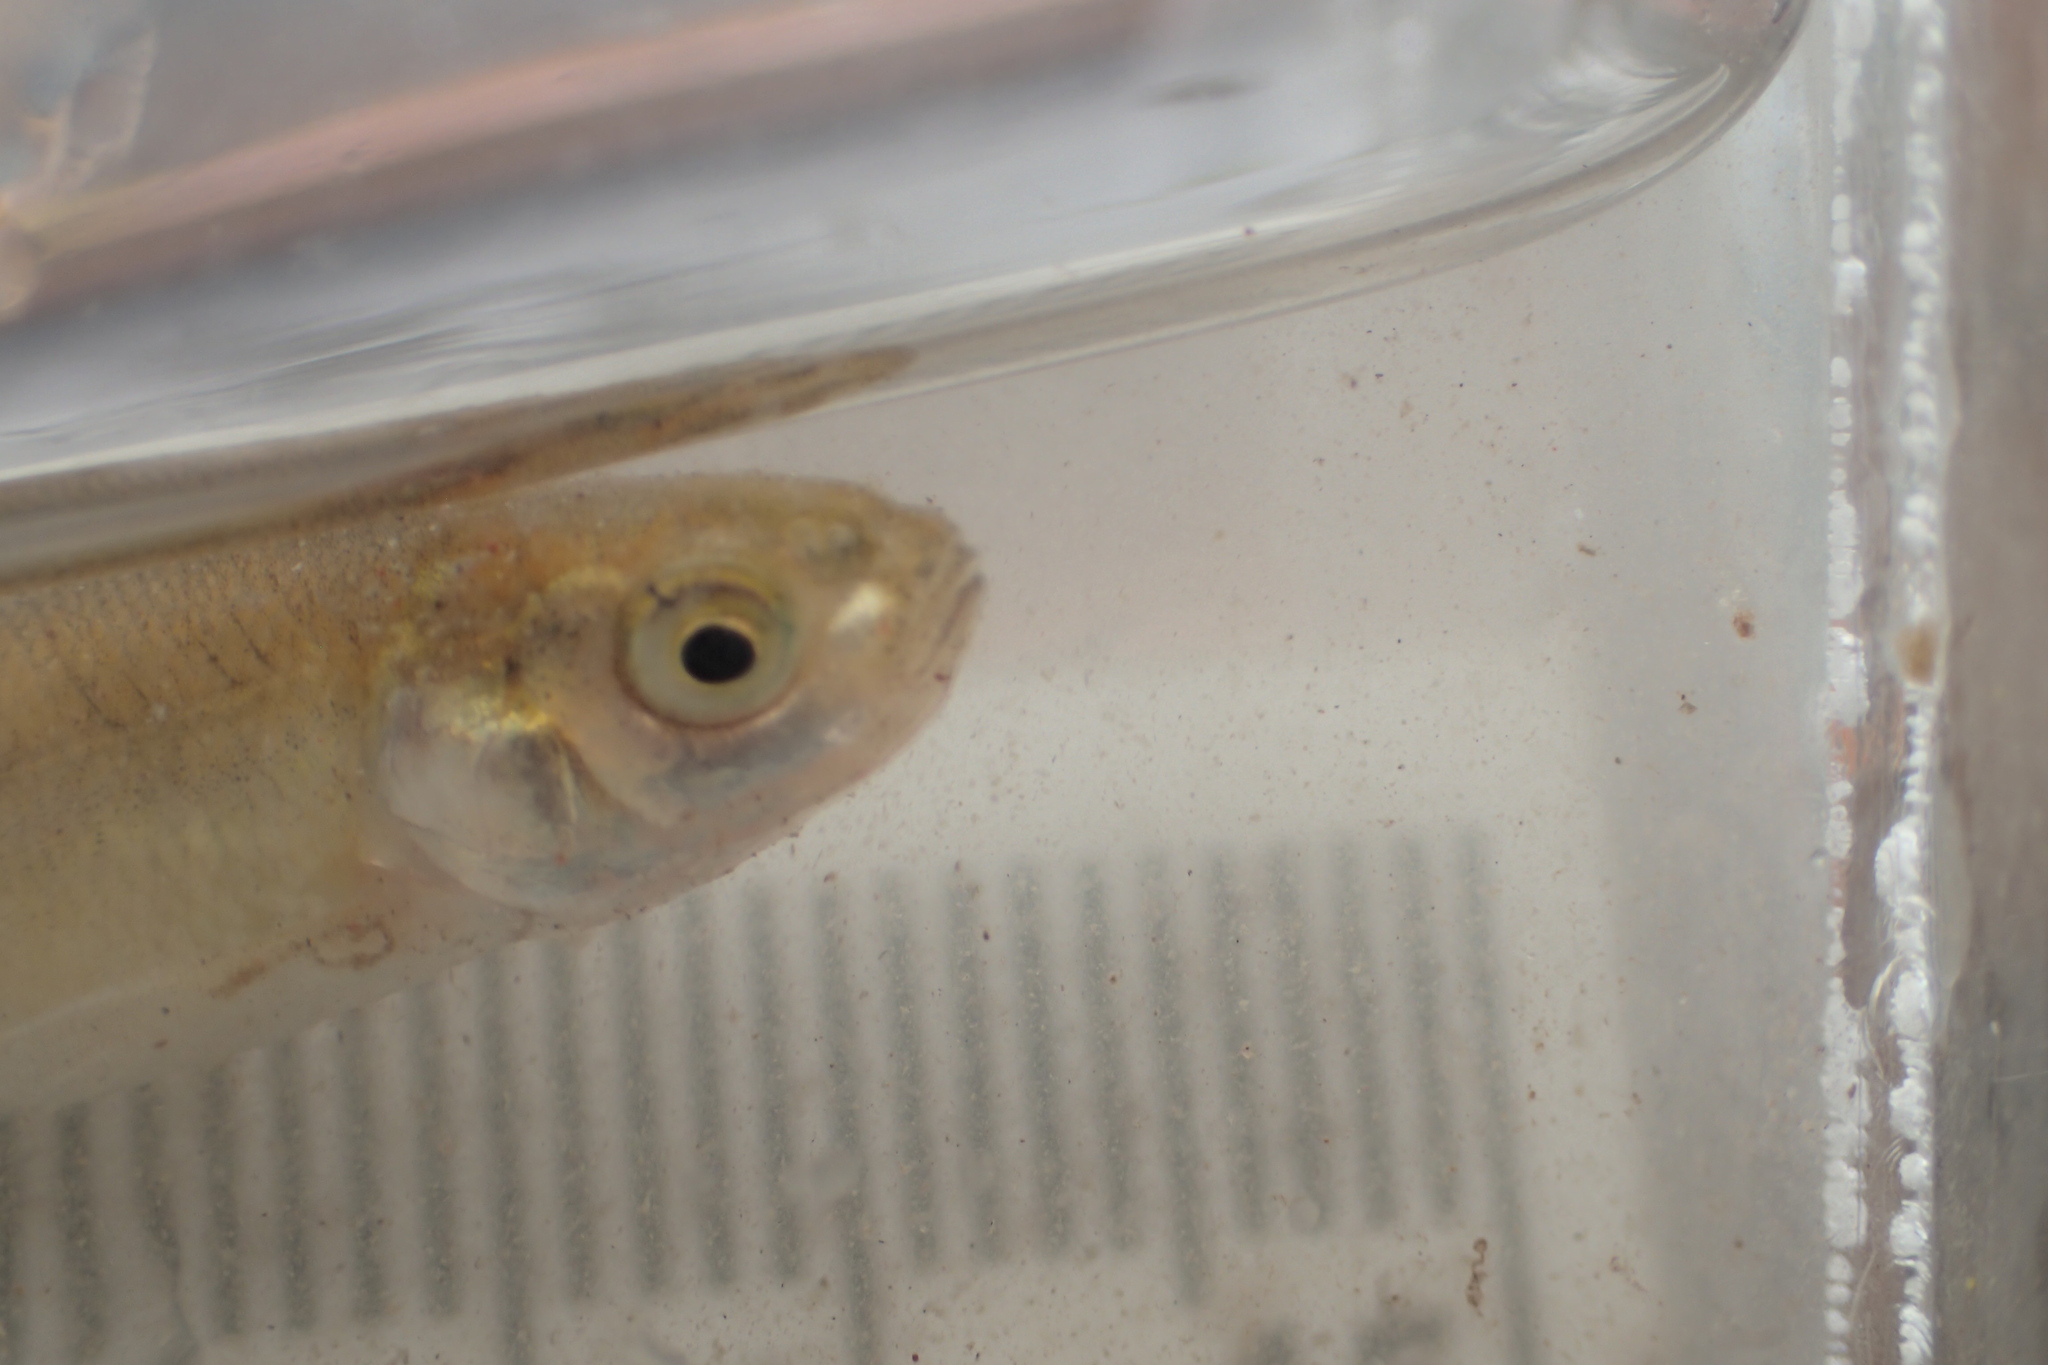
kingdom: Animalia
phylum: Chordata
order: Cypriniformes
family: Cyprinidae
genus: Pimephales
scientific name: Pimephales promelas
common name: Fathead minnow
